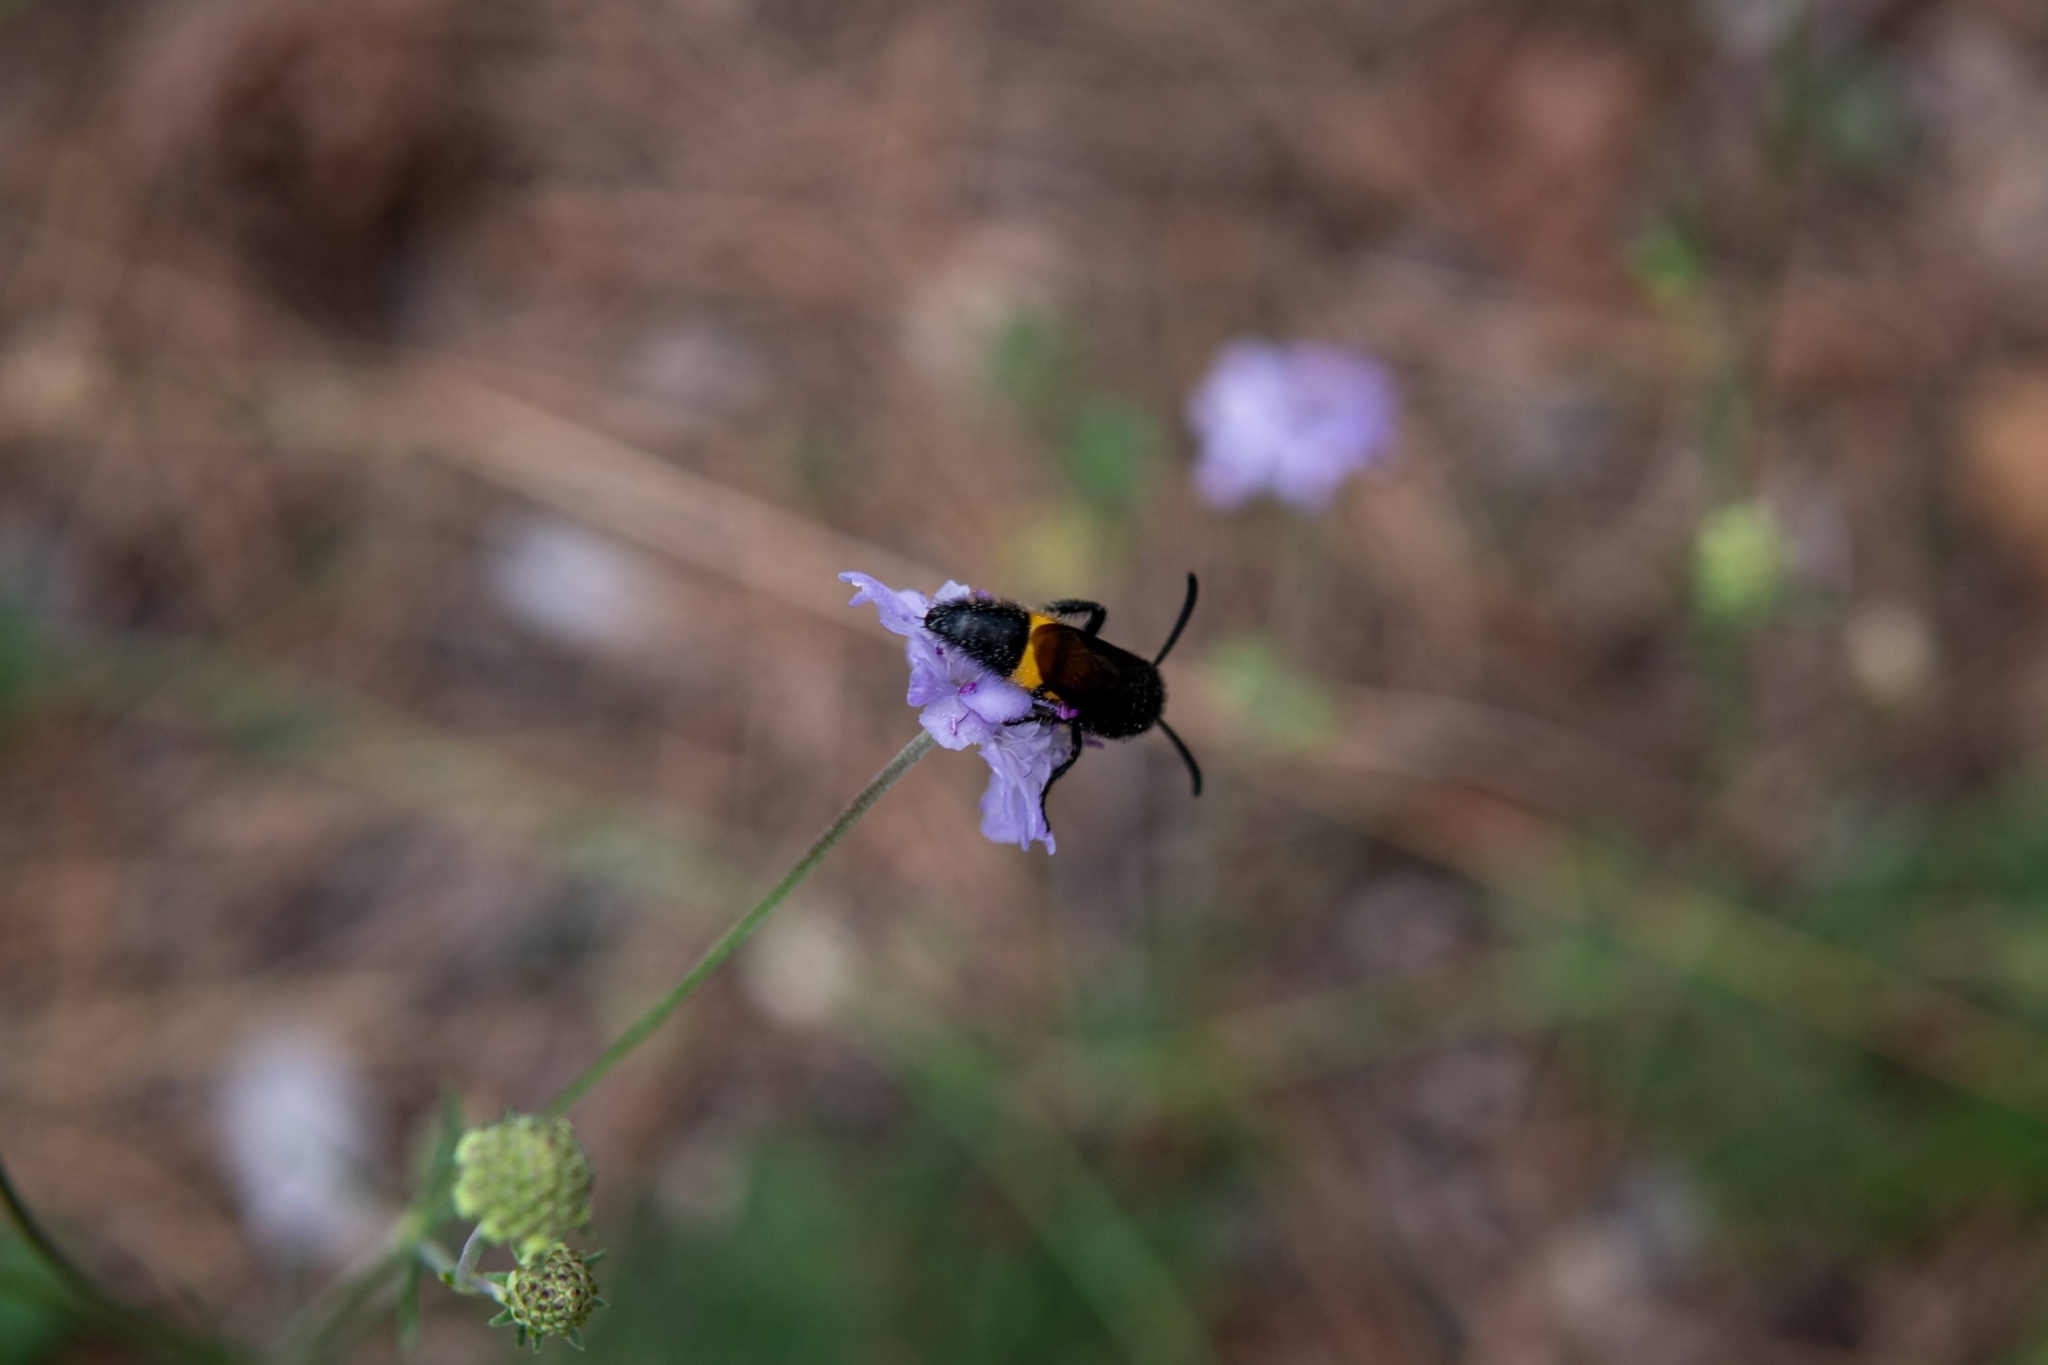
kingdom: Animalia
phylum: Arthropoda
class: Insecta
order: Hymenoptera
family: Scoliidae
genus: Scolia
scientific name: Scolia hirta
